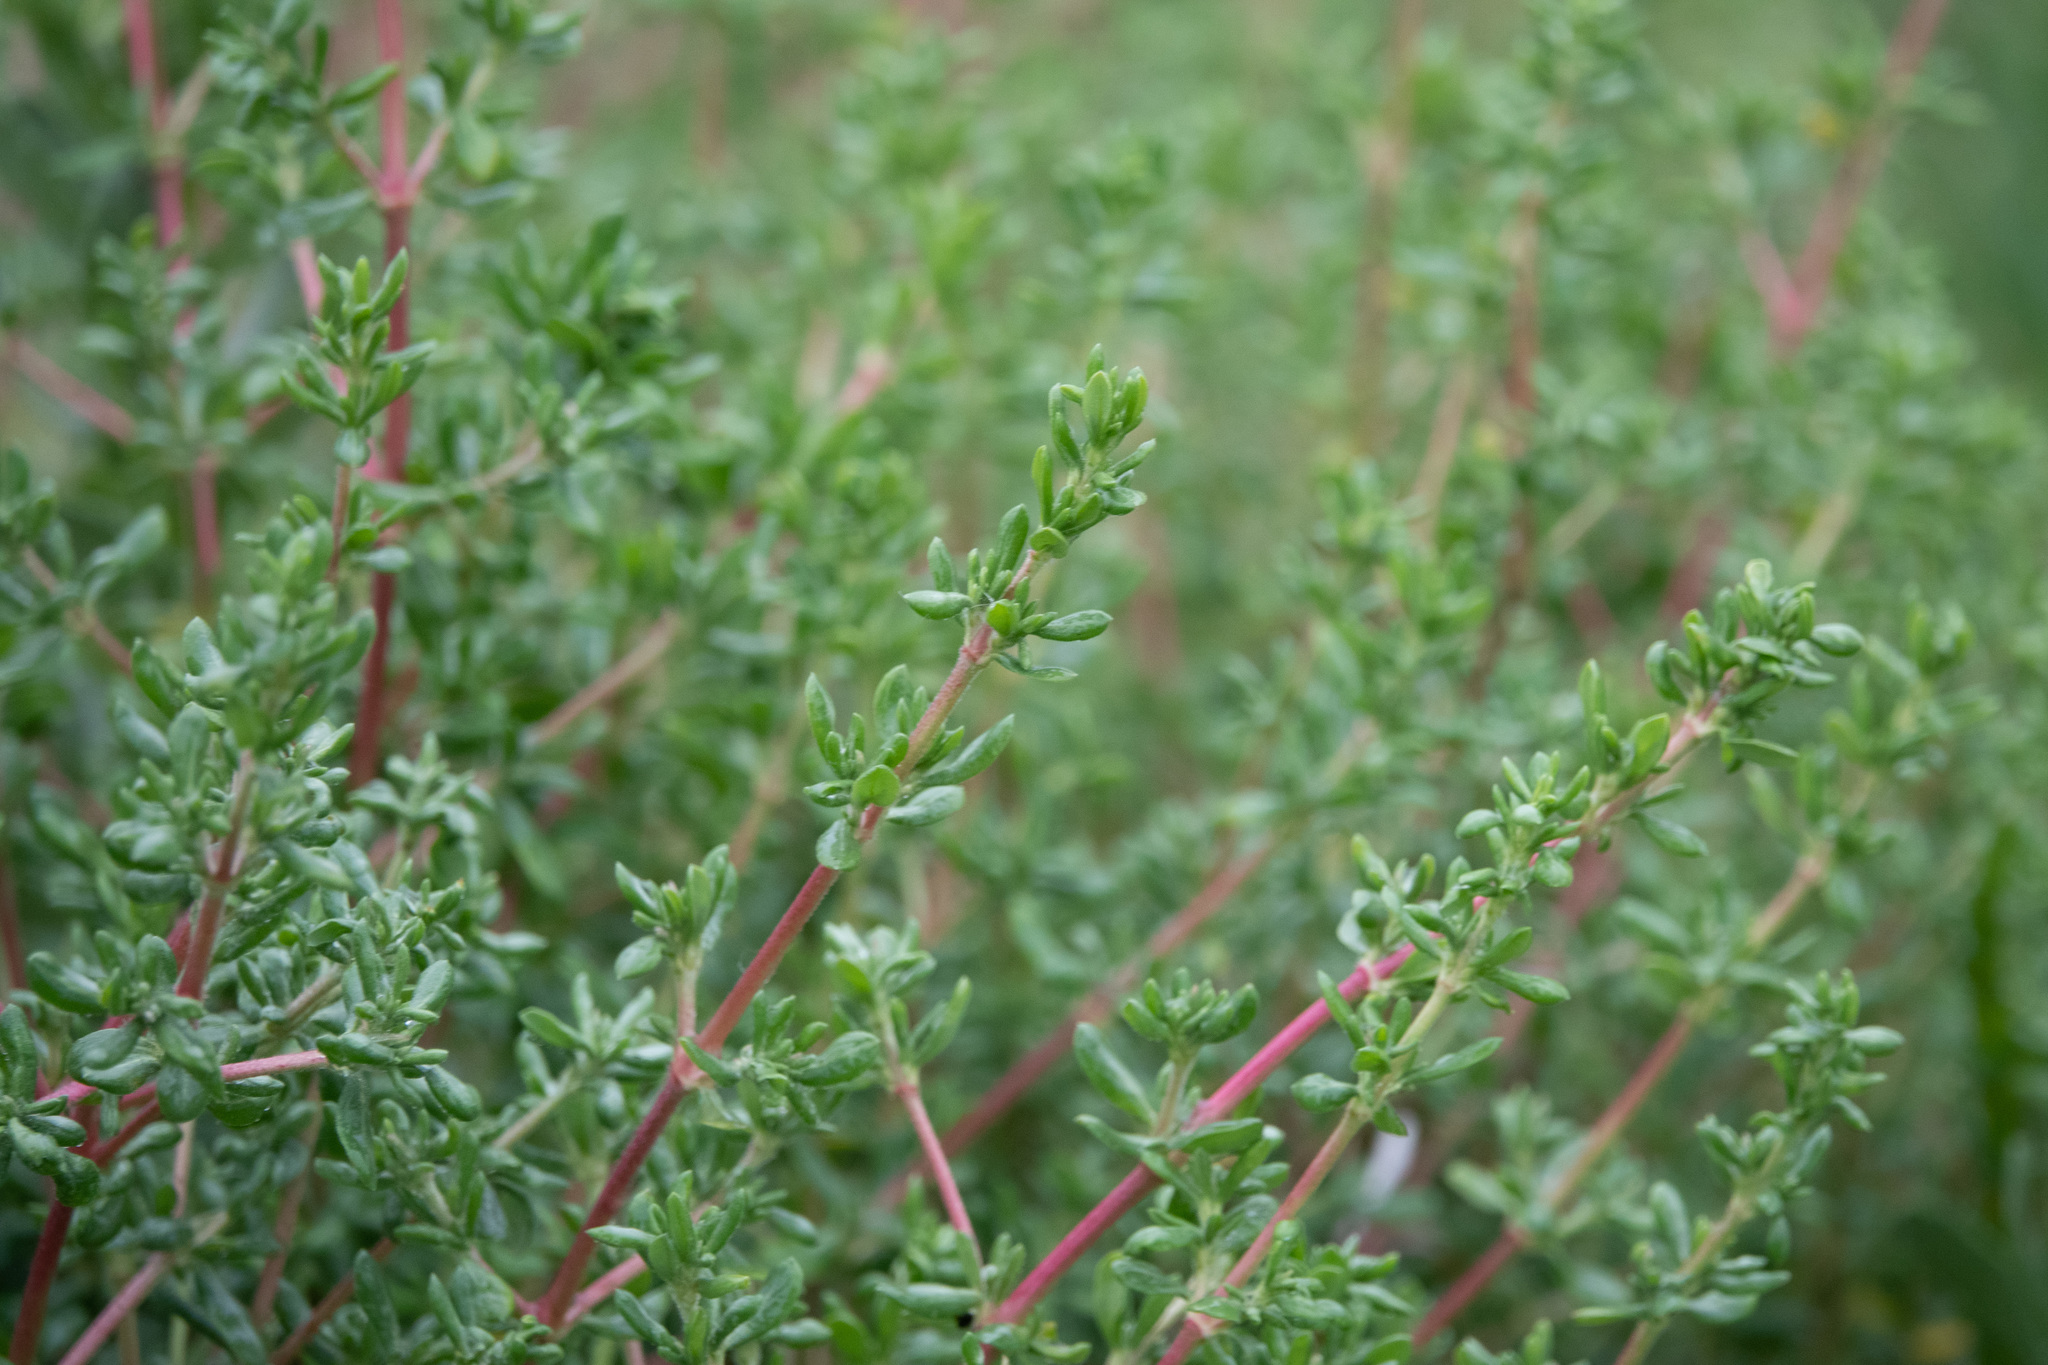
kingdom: Plantae
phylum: Tracheophyta
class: Magnoliopsida
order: Caryophyllales
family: Frankeniaceae
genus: Frankenia
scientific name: Frankenia salina
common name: Alkali seaheath
